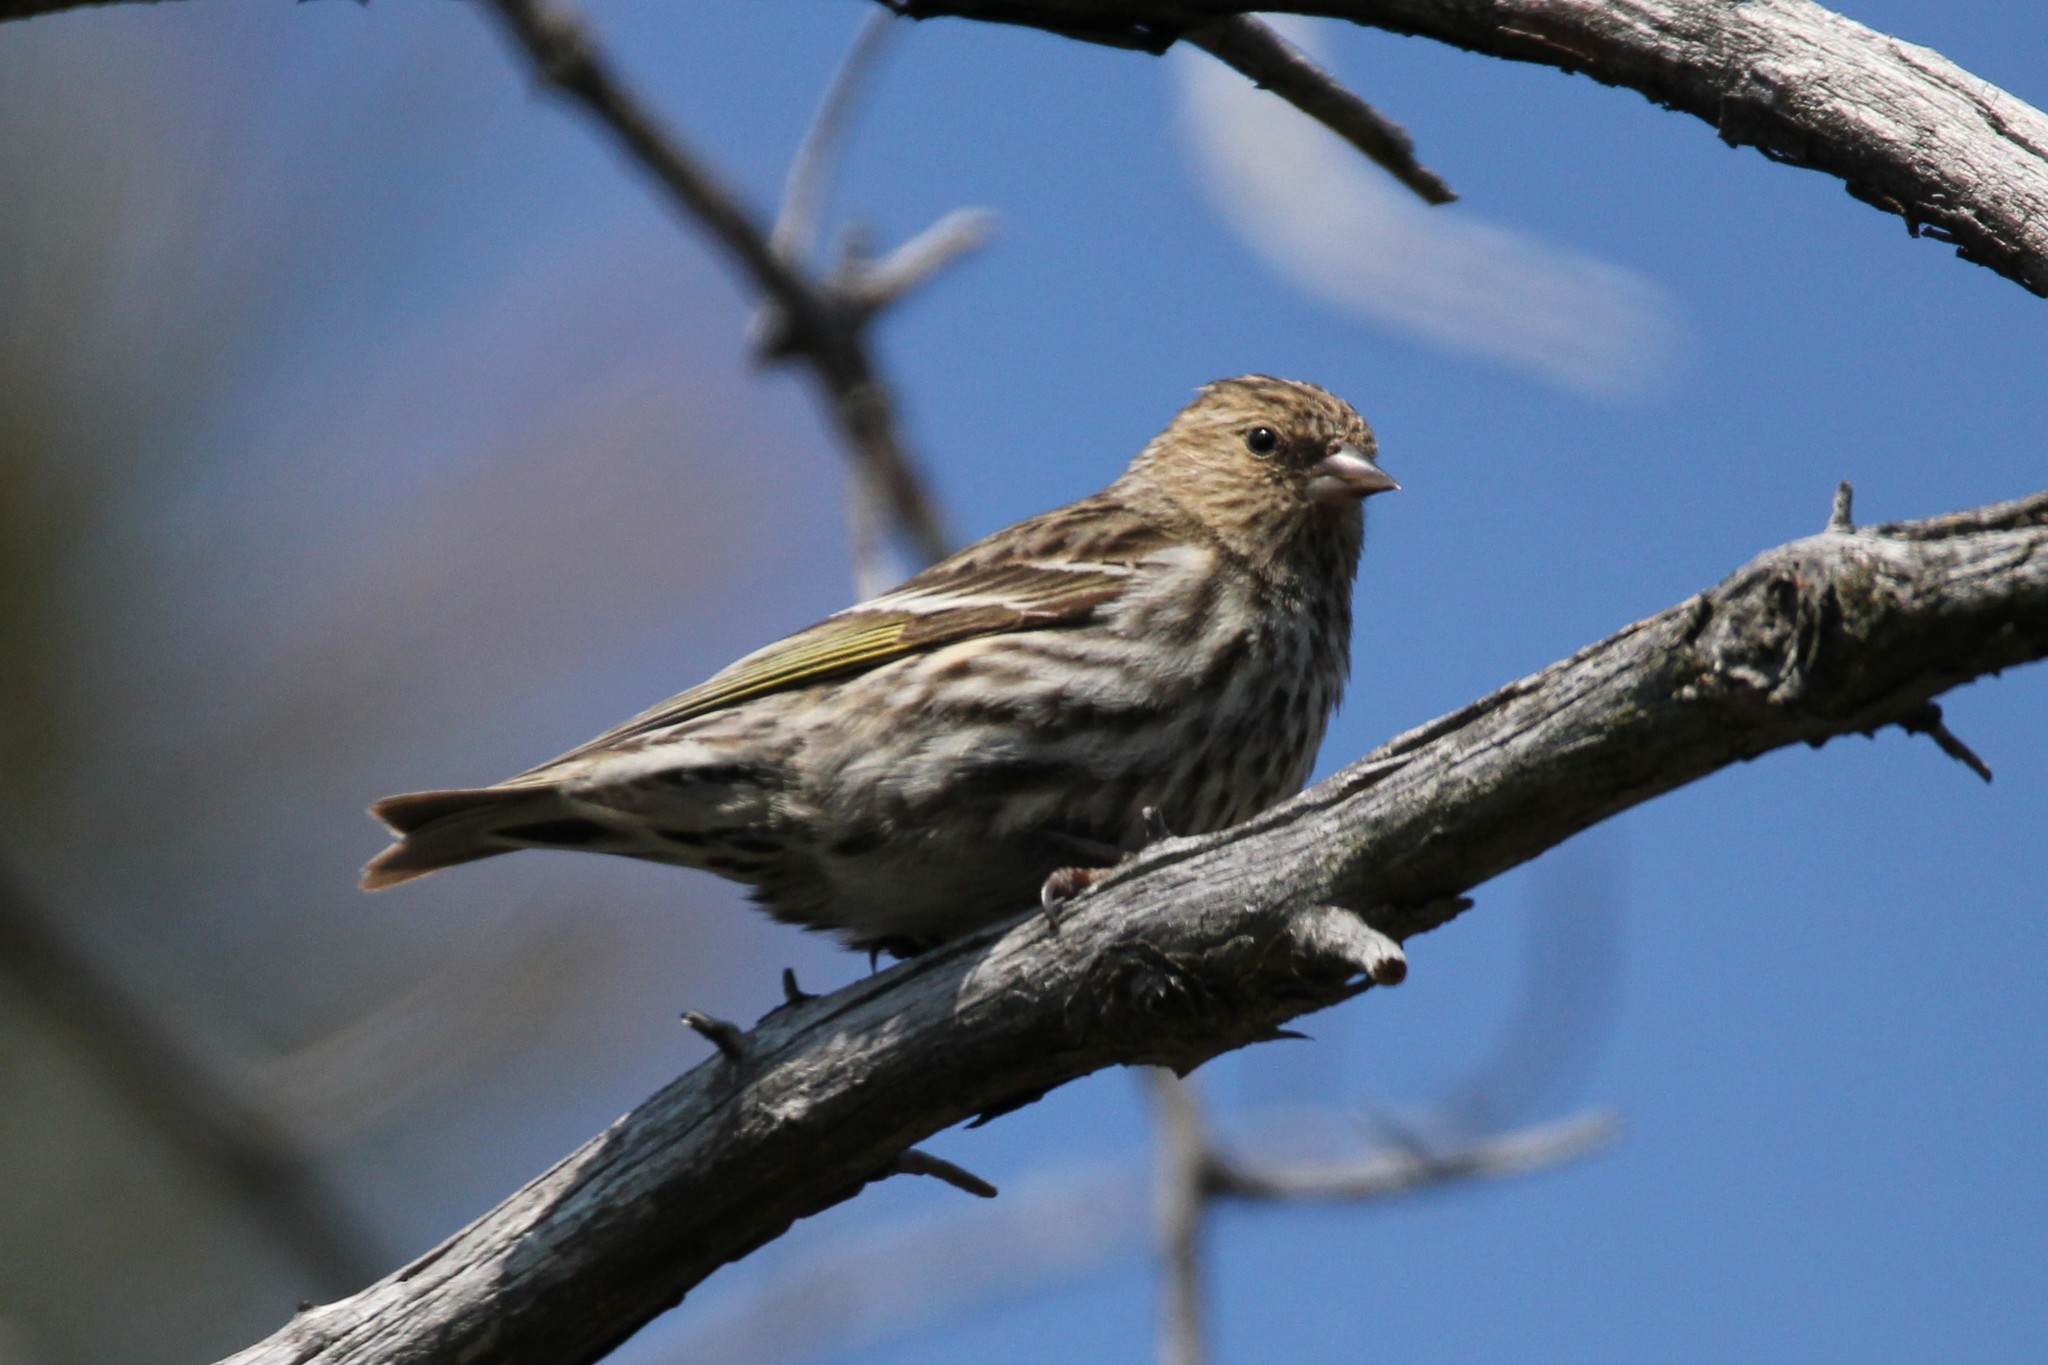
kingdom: Animalia
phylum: Chordata
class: Aves
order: Passeriformes
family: Fringillidae
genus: Spinus
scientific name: Spinus pinus
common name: Pine siskin
